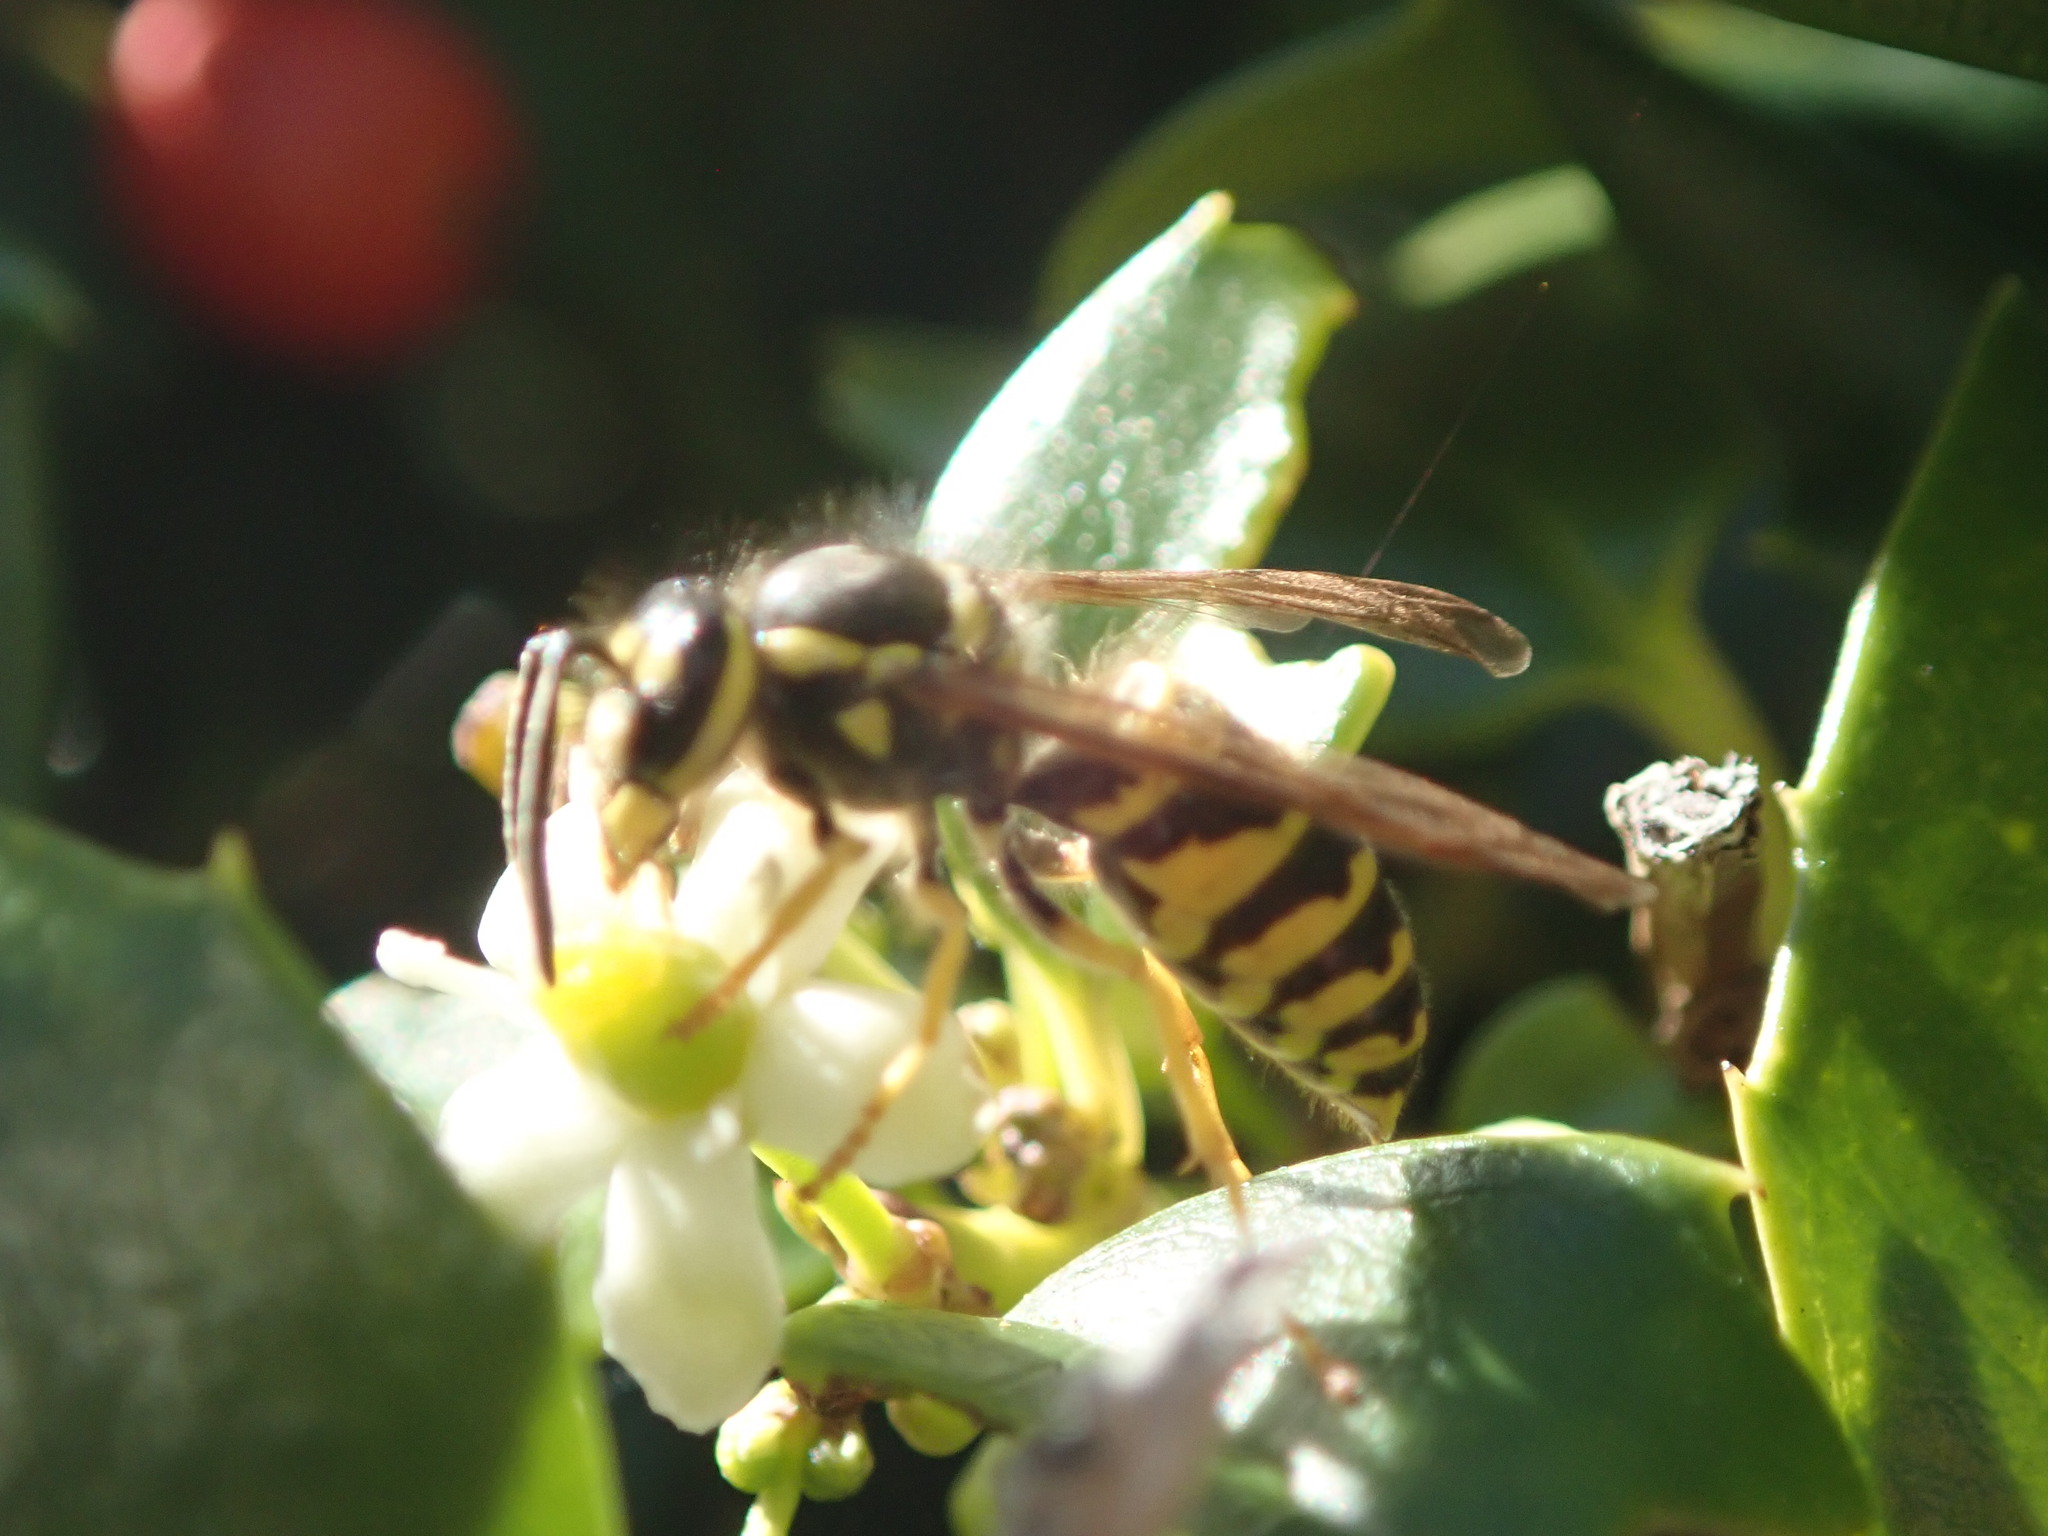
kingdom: Animalia
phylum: Arthropoda
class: Insecta
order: Hymenoptera
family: Vespidae
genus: Vespula
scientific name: Vespula maculifrons
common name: Eastern yellowjacket
